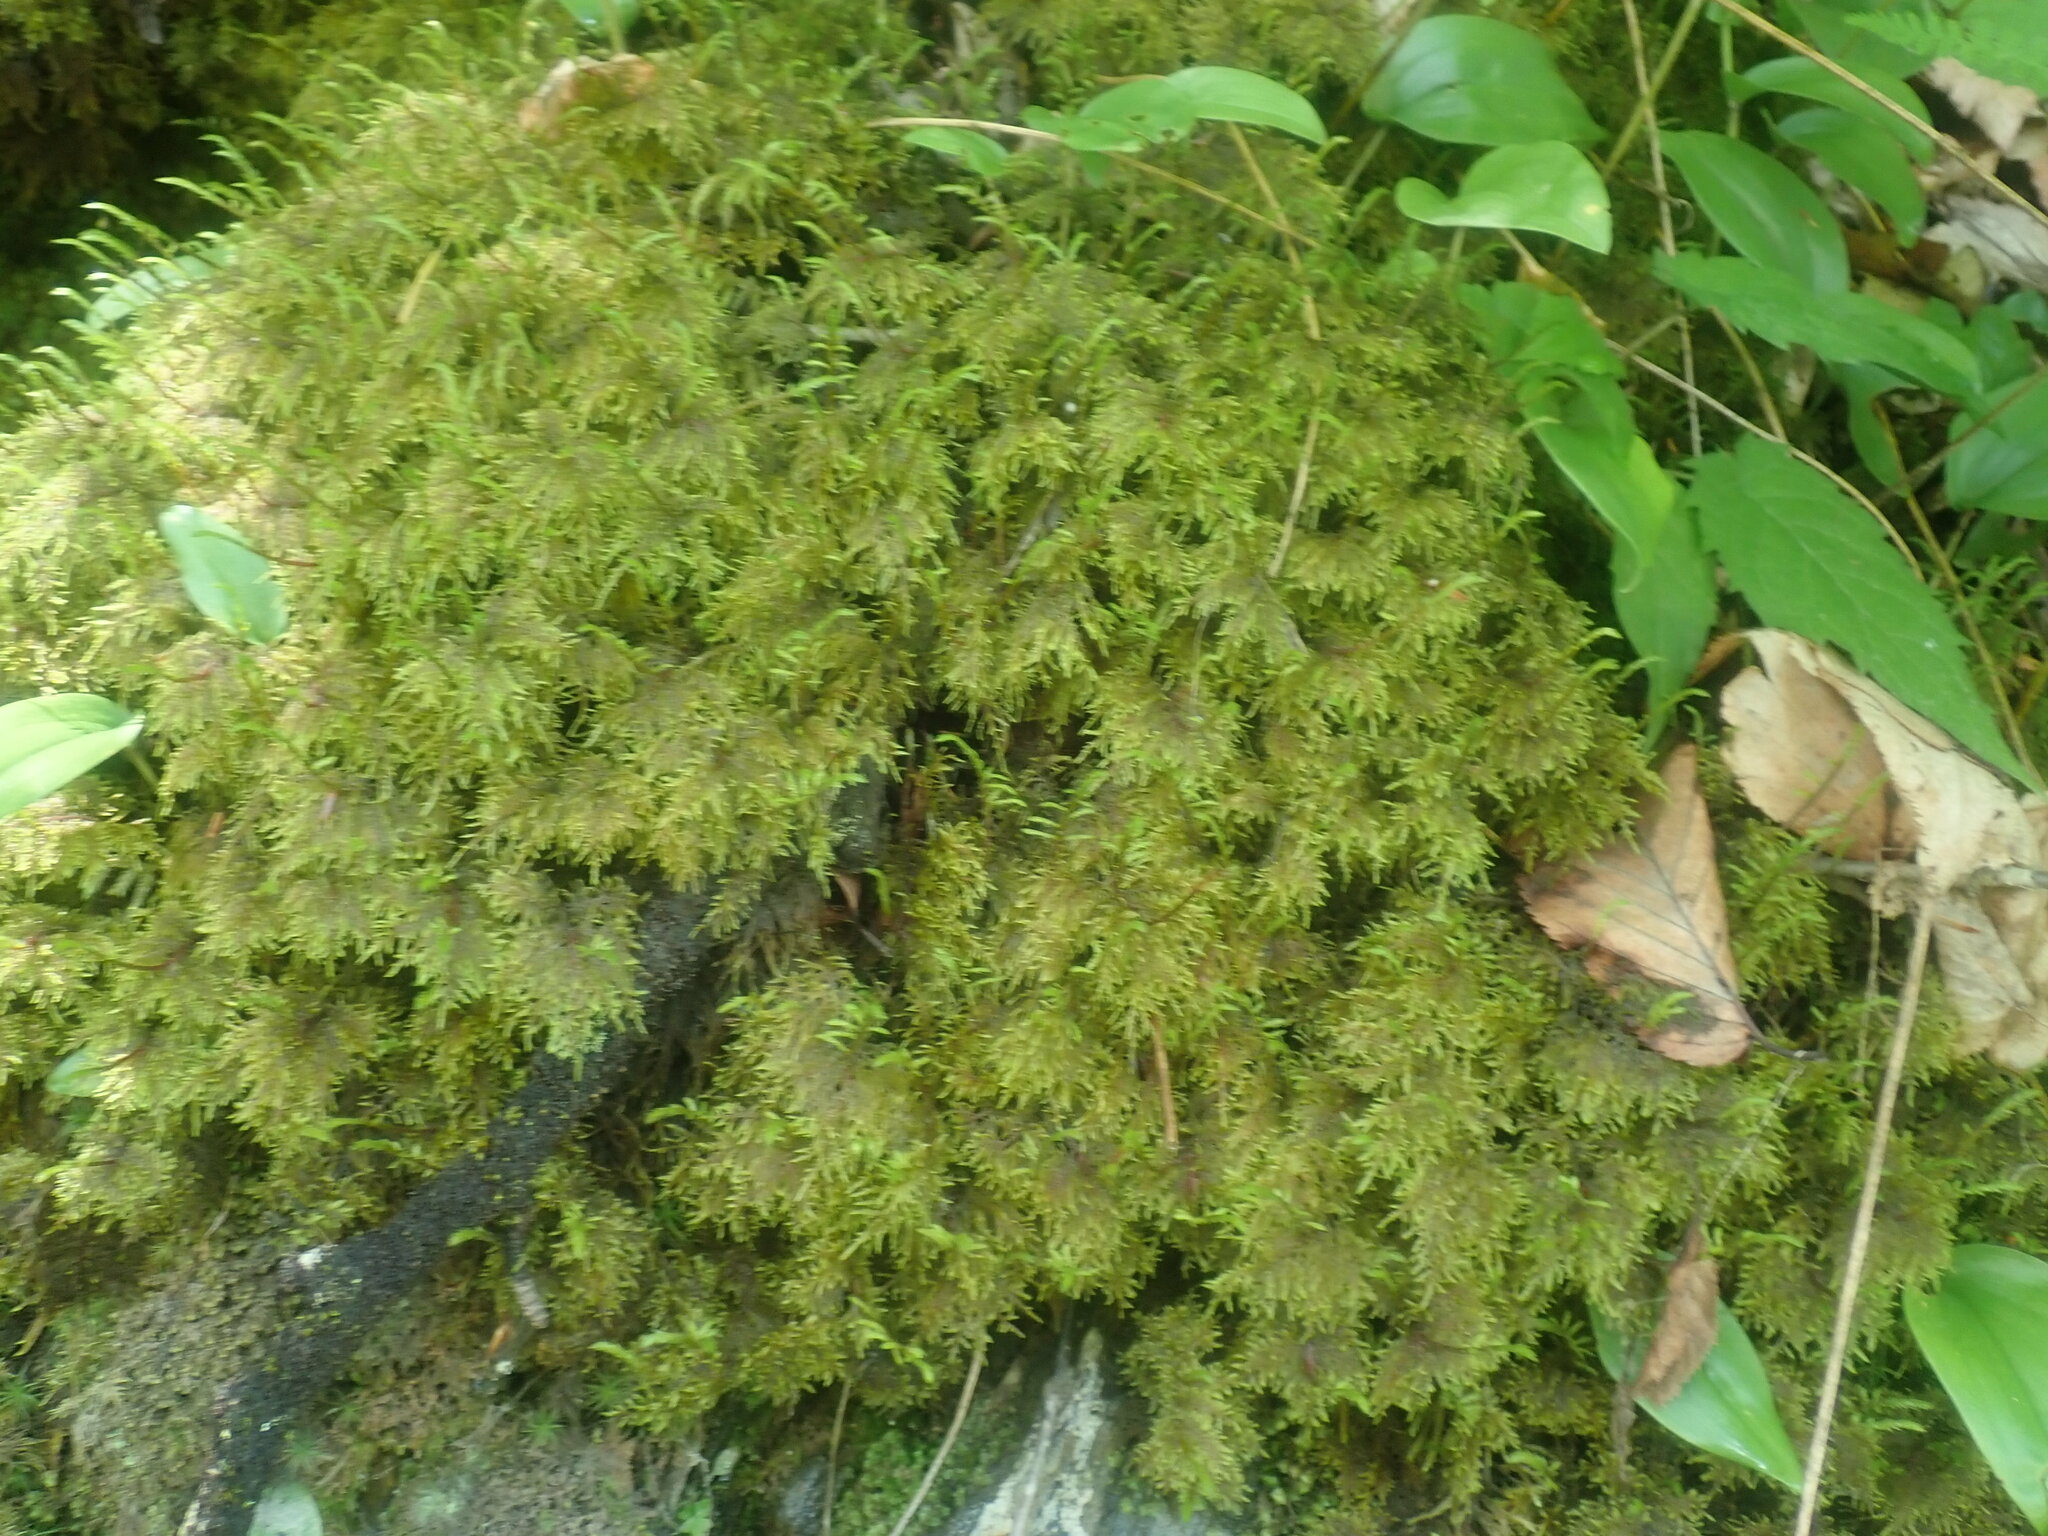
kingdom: Plantae
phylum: Bryophyta
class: Bryopsida
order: Hypnales
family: Hylocomiaceae
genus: Hylocomium
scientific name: Hylocomium splendens
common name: Stairstep moss
